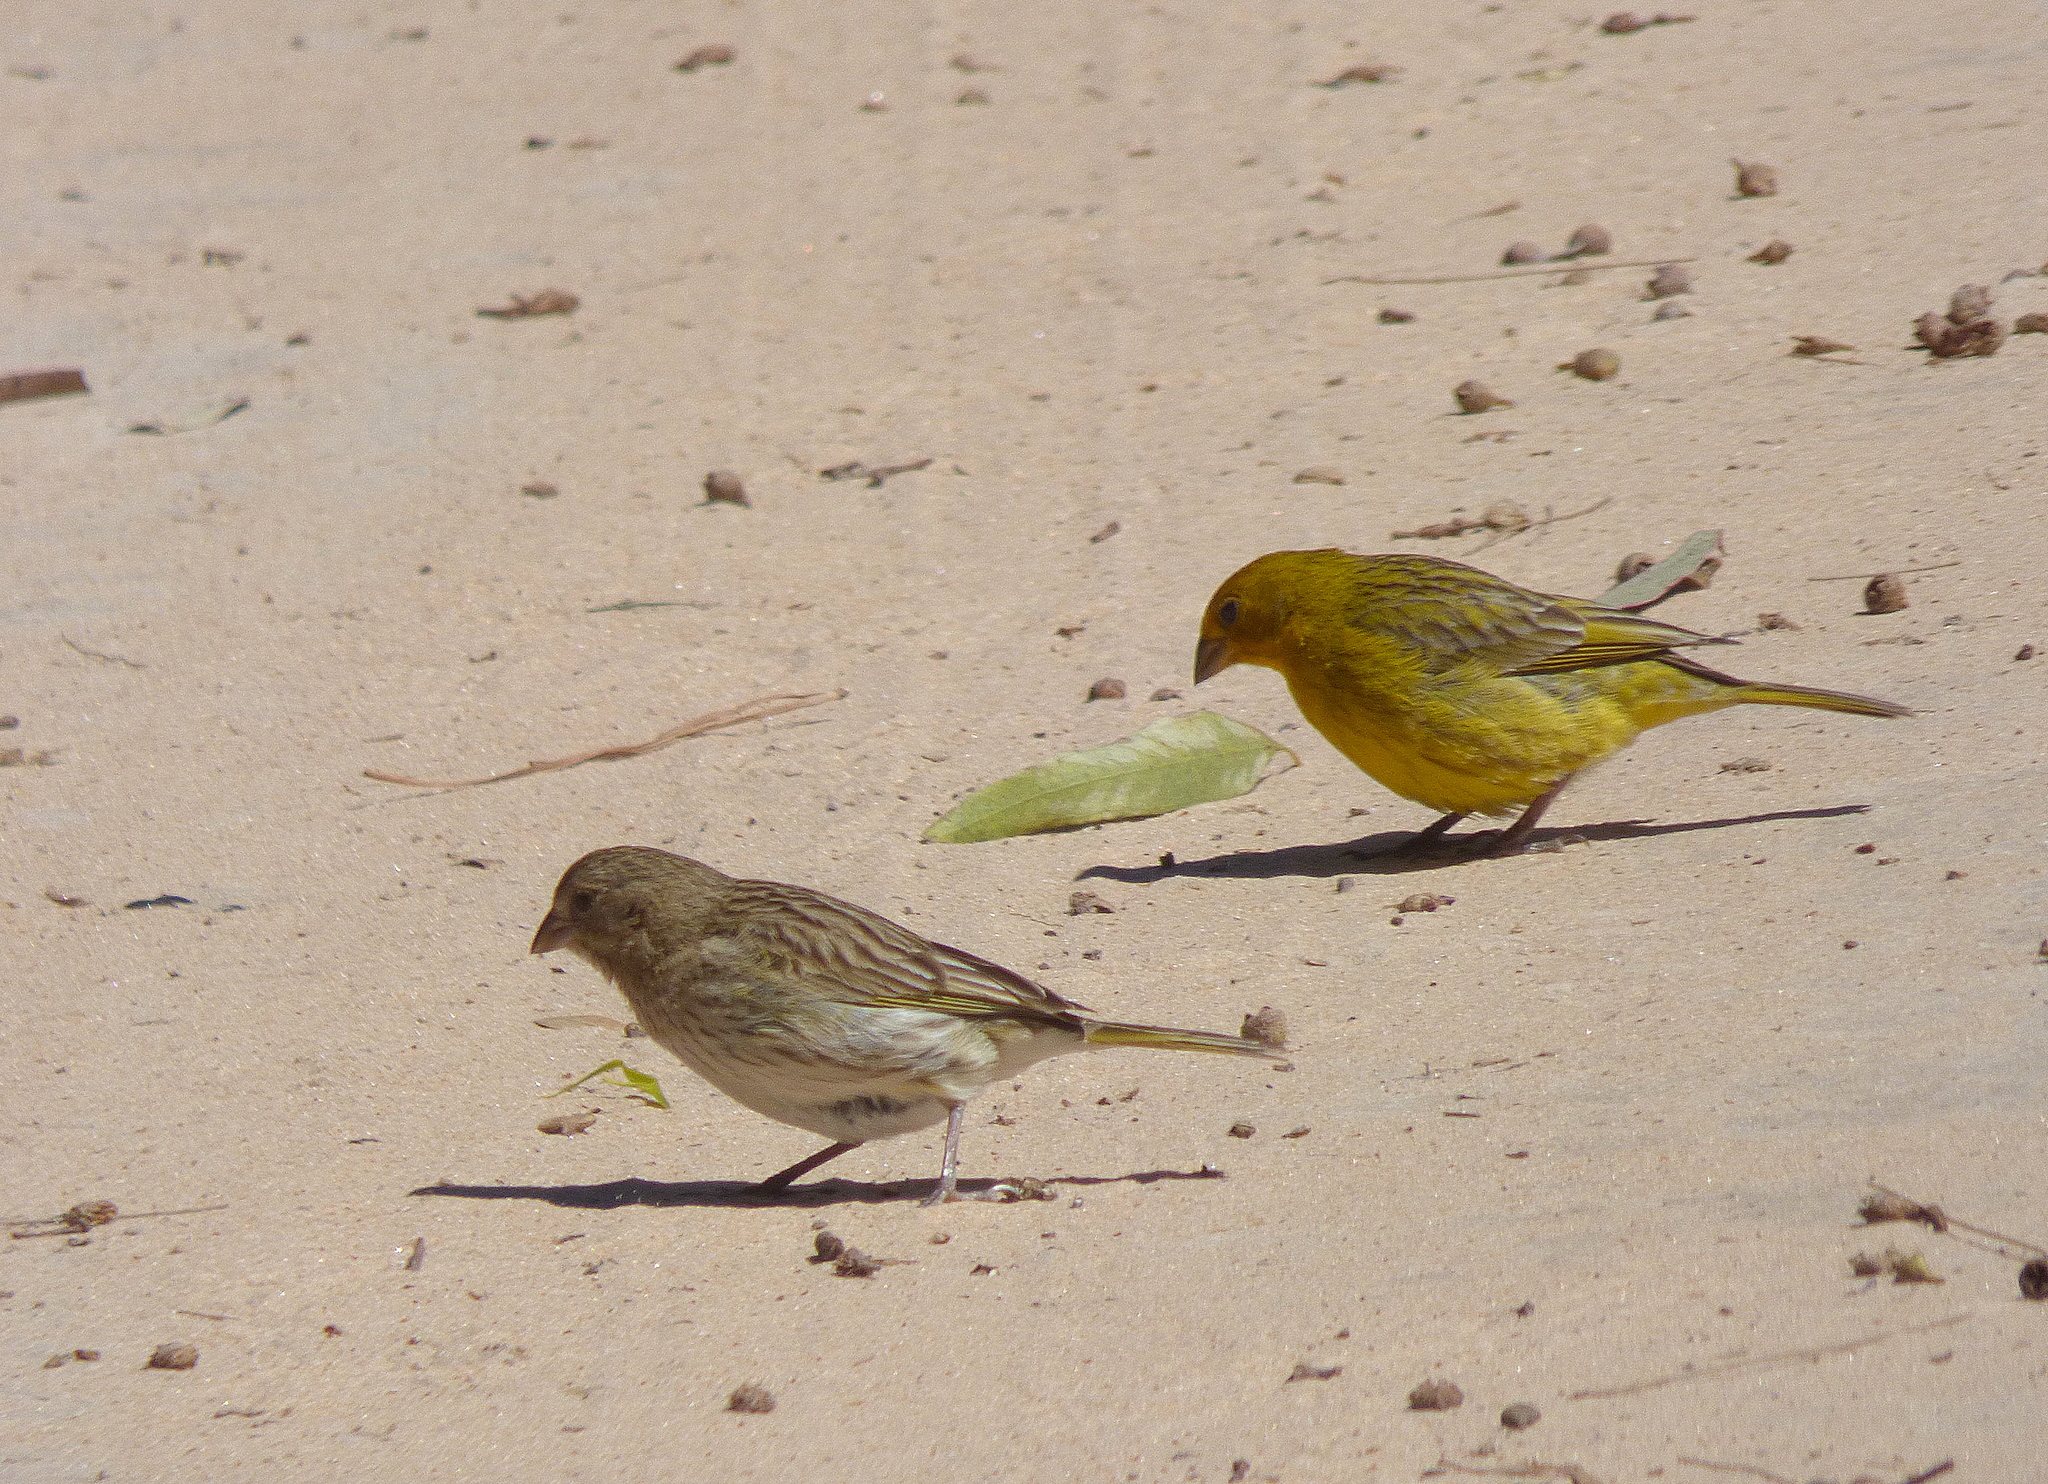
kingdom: Animalia
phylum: Chordata
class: Aves
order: Passeriformes
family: Thraupidae
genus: Sicalis
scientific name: Sicalis flaveola
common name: Saffron finch
